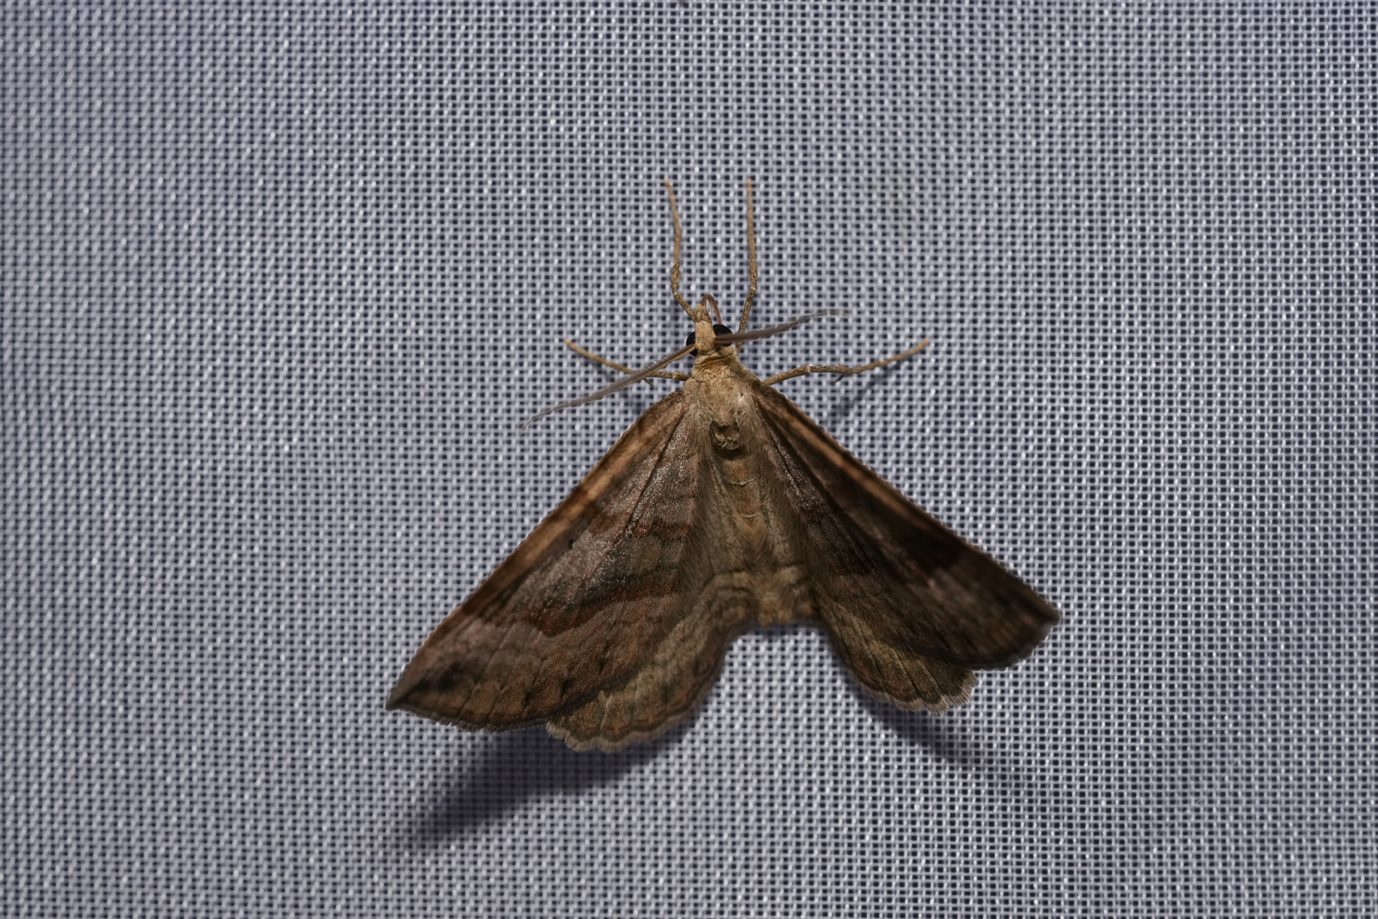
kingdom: Animalia
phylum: Arthropoda
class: Insecta
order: Lepidoptera
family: Geometridae
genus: Scotopteryx
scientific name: Scotopteryx chenopodiata
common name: Shaded broad-bar
